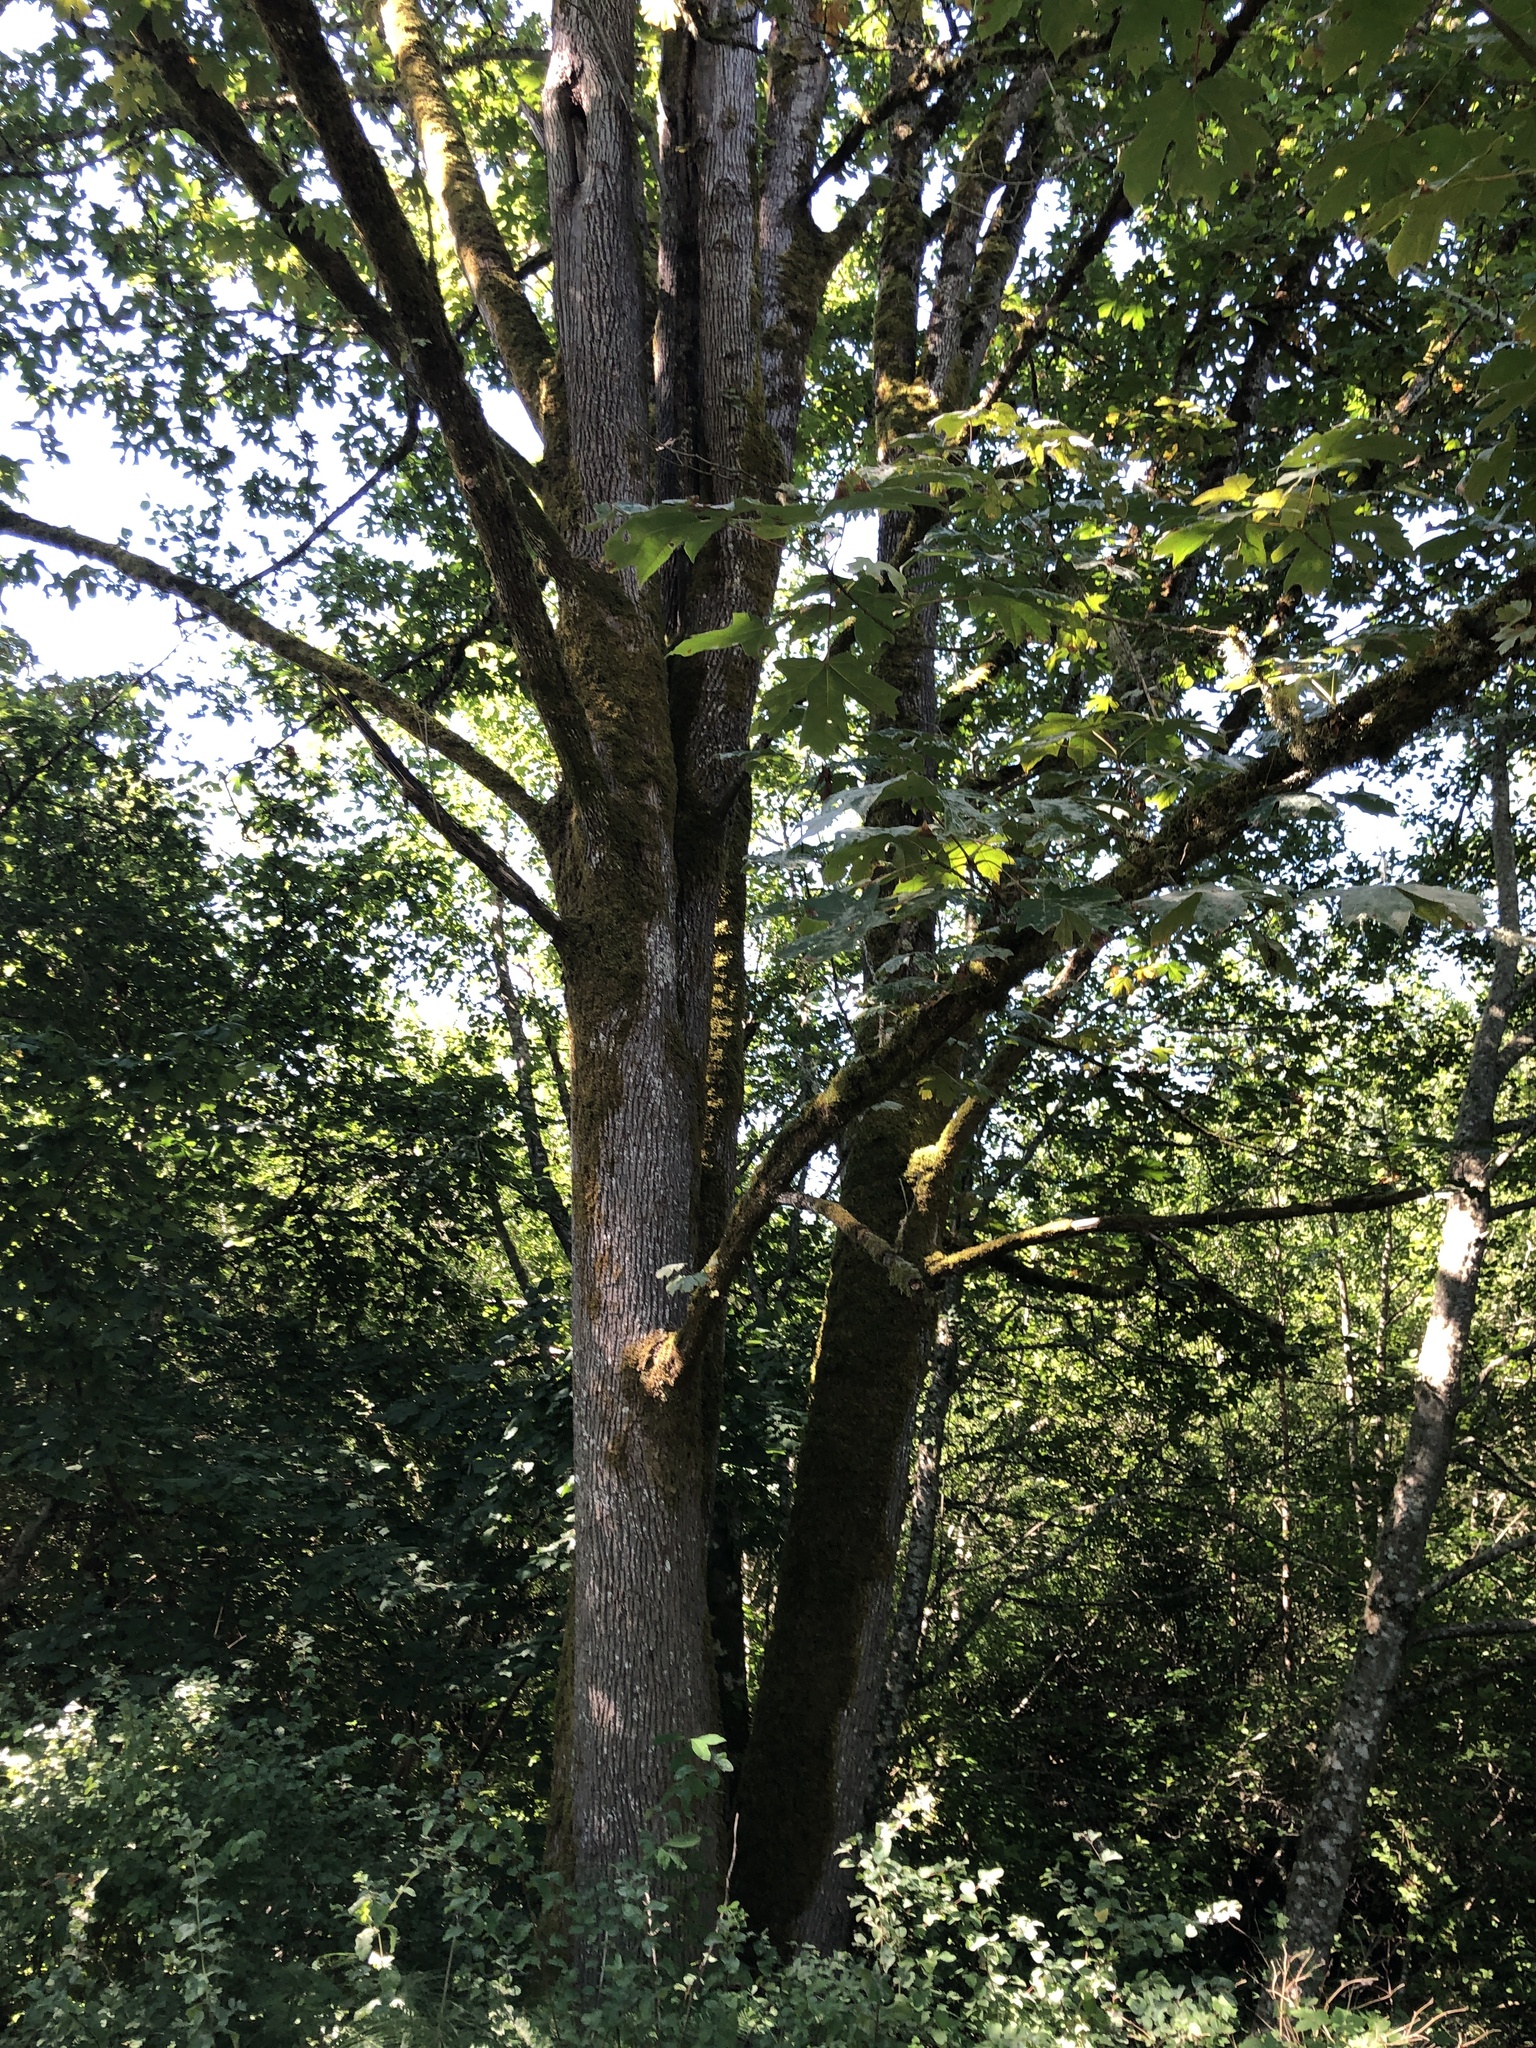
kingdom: Plantae
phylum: Tracheophyta
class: Magnoliopsida
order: Sapindales
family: Sapindaceae
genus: Acer
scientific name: Acer macrophyllum
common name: Oregon maple
